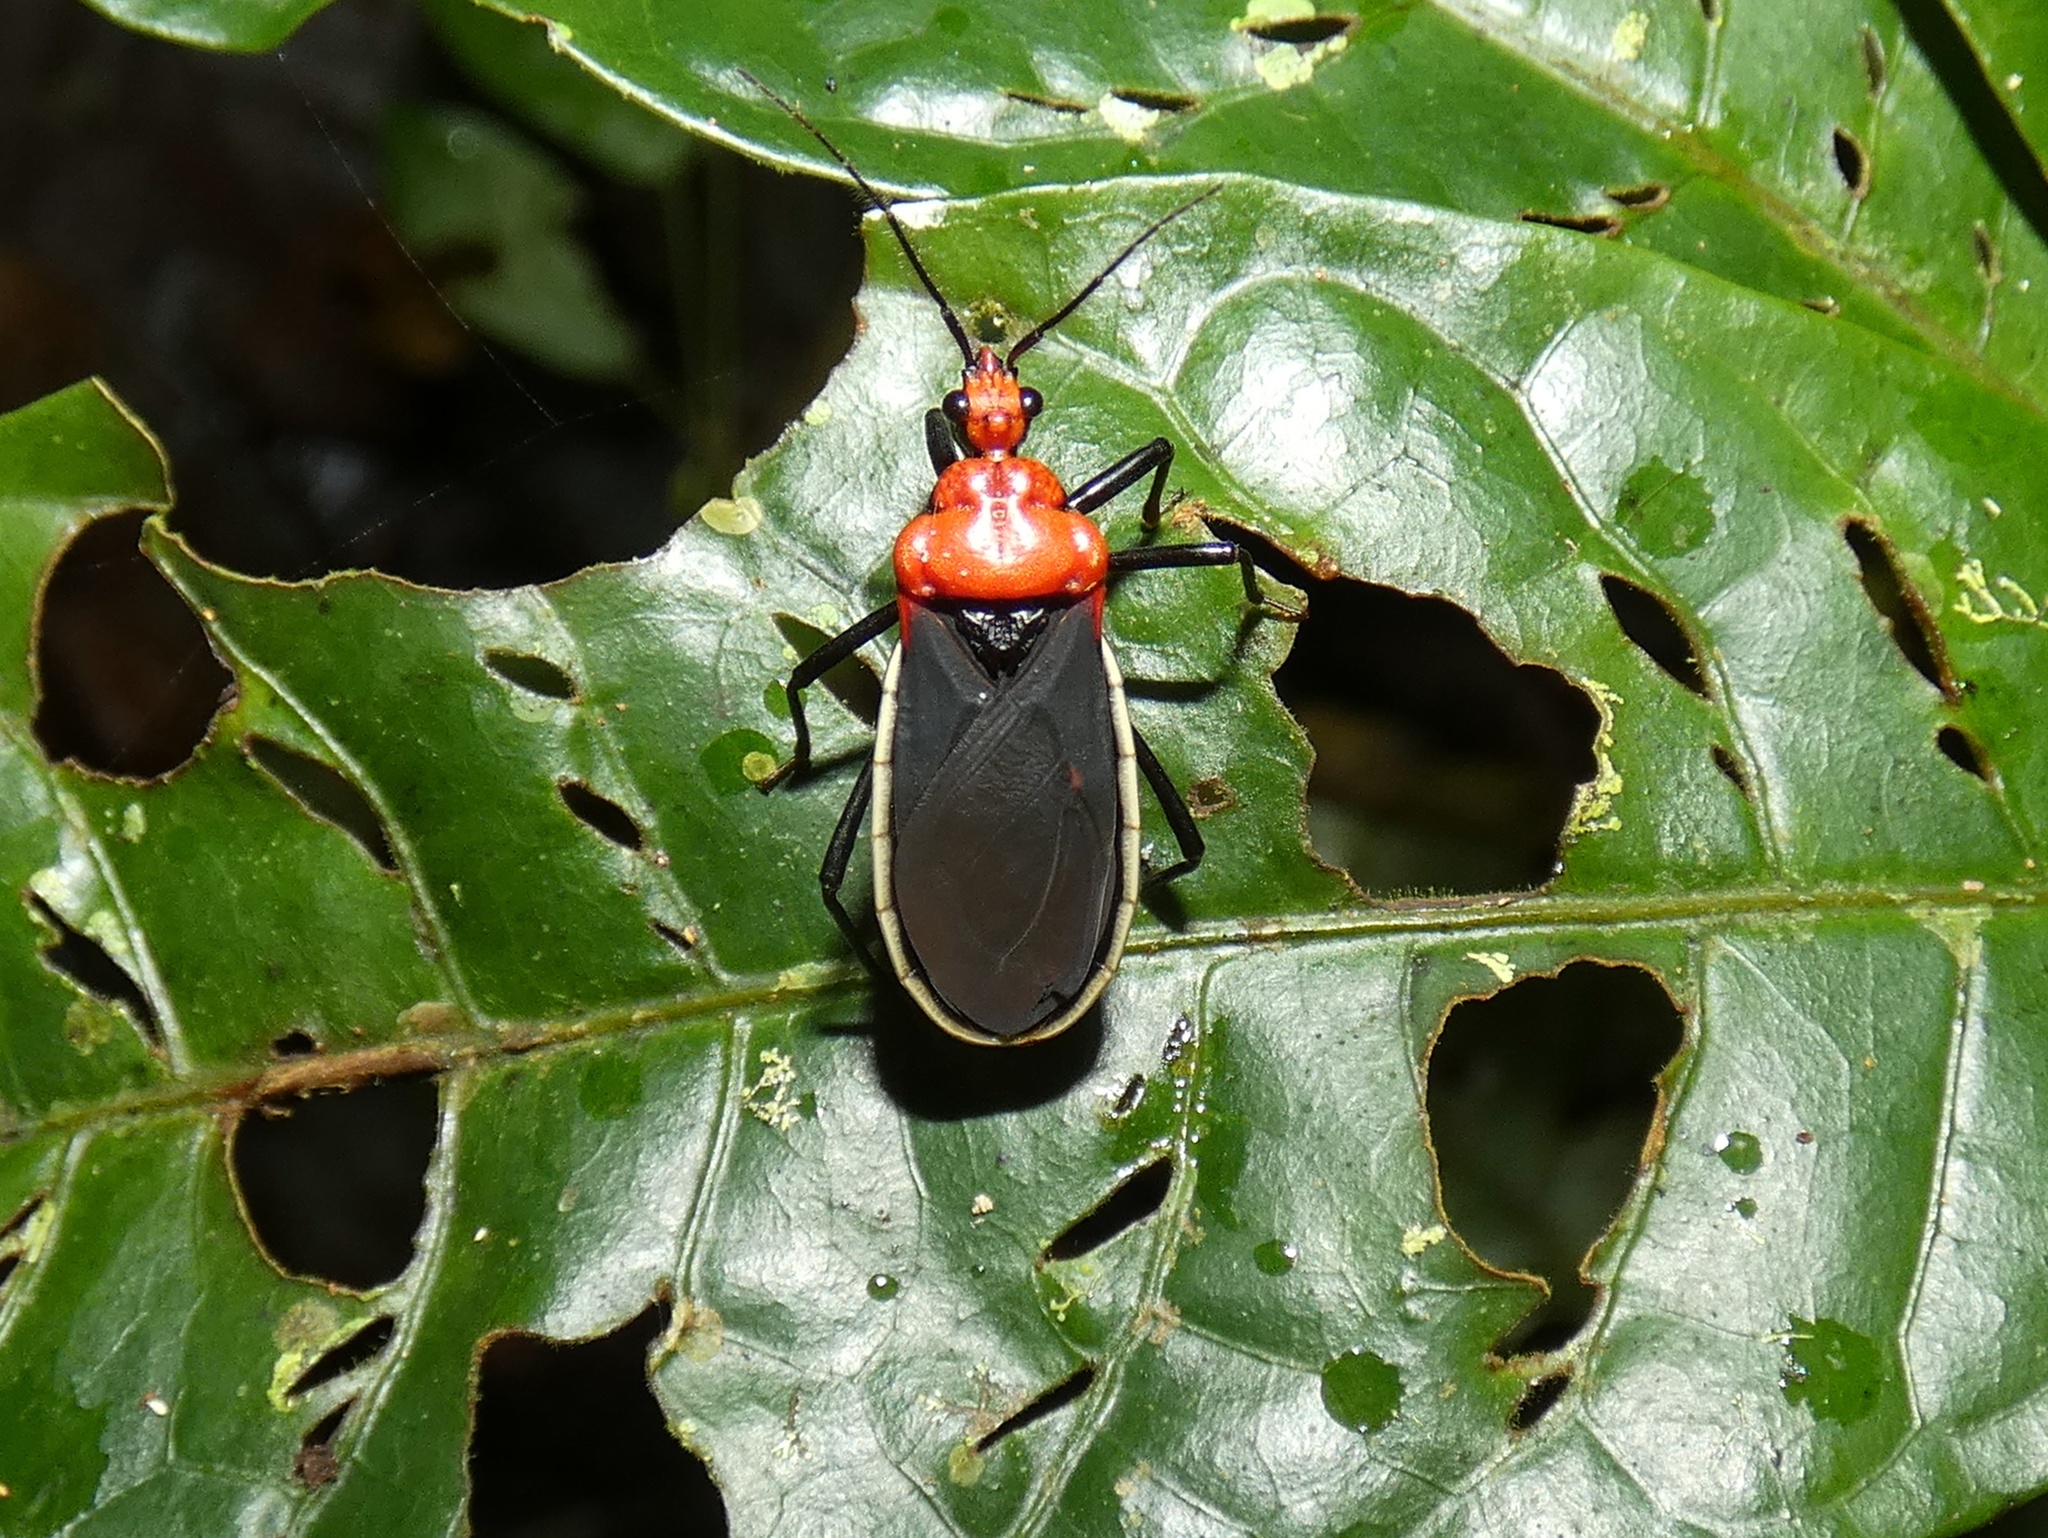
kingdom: Animalia
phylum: Arthropoda
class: Insecta
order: Hemiptera
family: Reduviidae
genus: Rhiginia
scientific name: Rhiginia bimaculata
